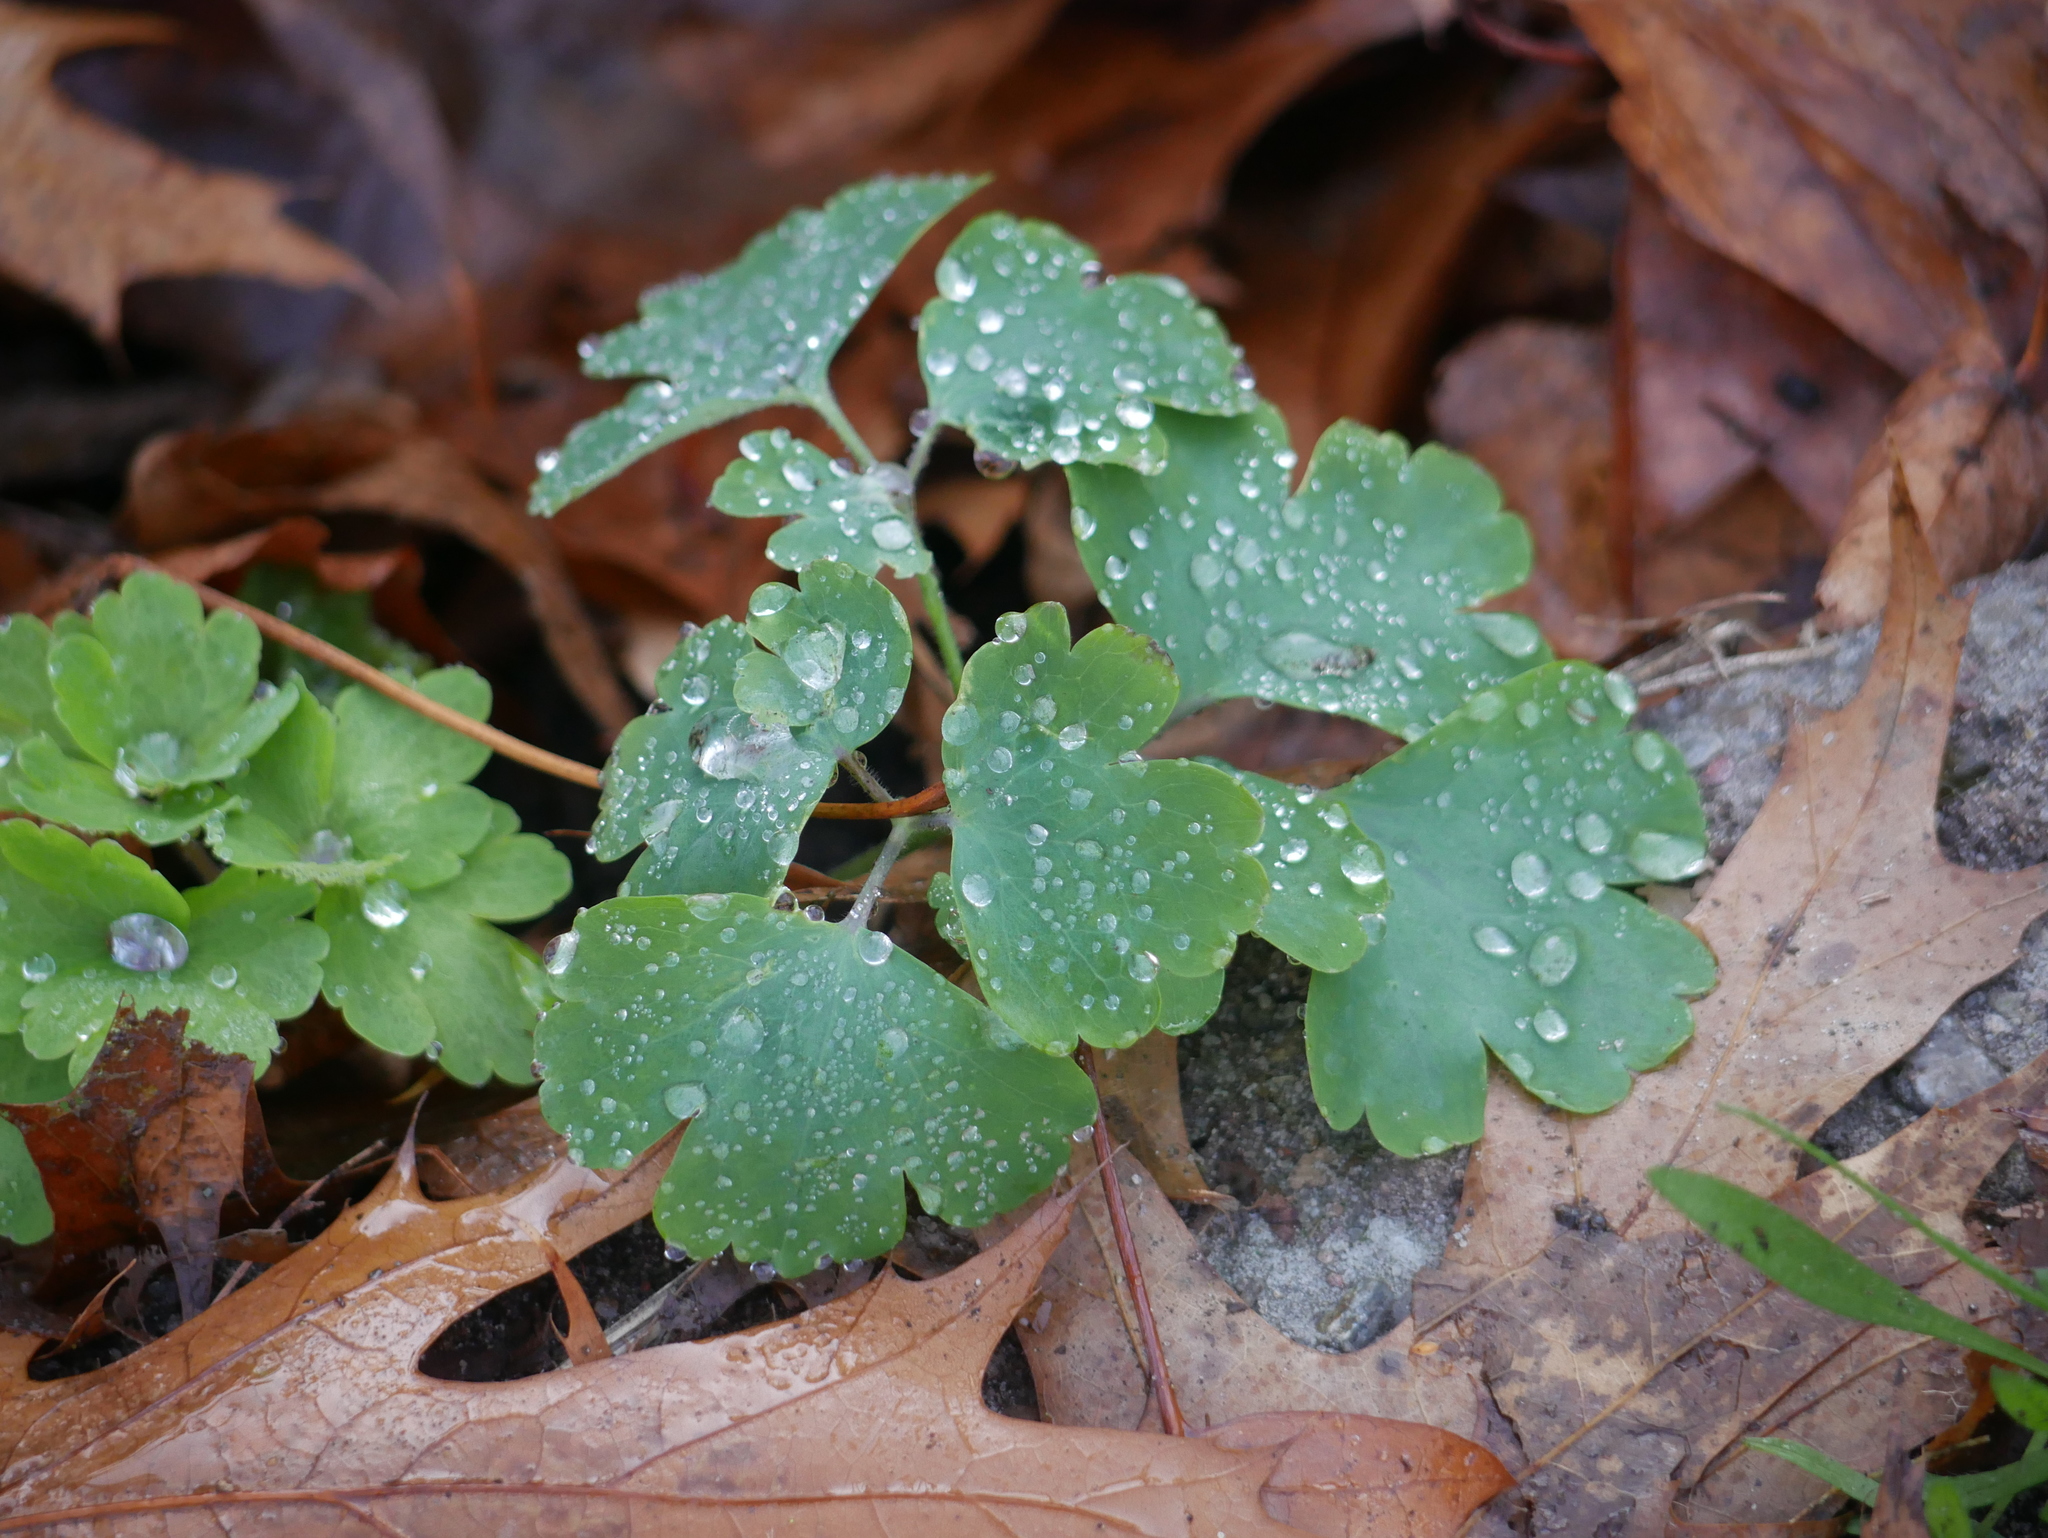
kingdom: Plantae
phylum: Tracheophyta
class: Magnoliopsida
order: Ranunculales
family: Ranunculaceae
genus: Aquilegia
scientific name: Aquilegia vulgaris
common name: Columbine
